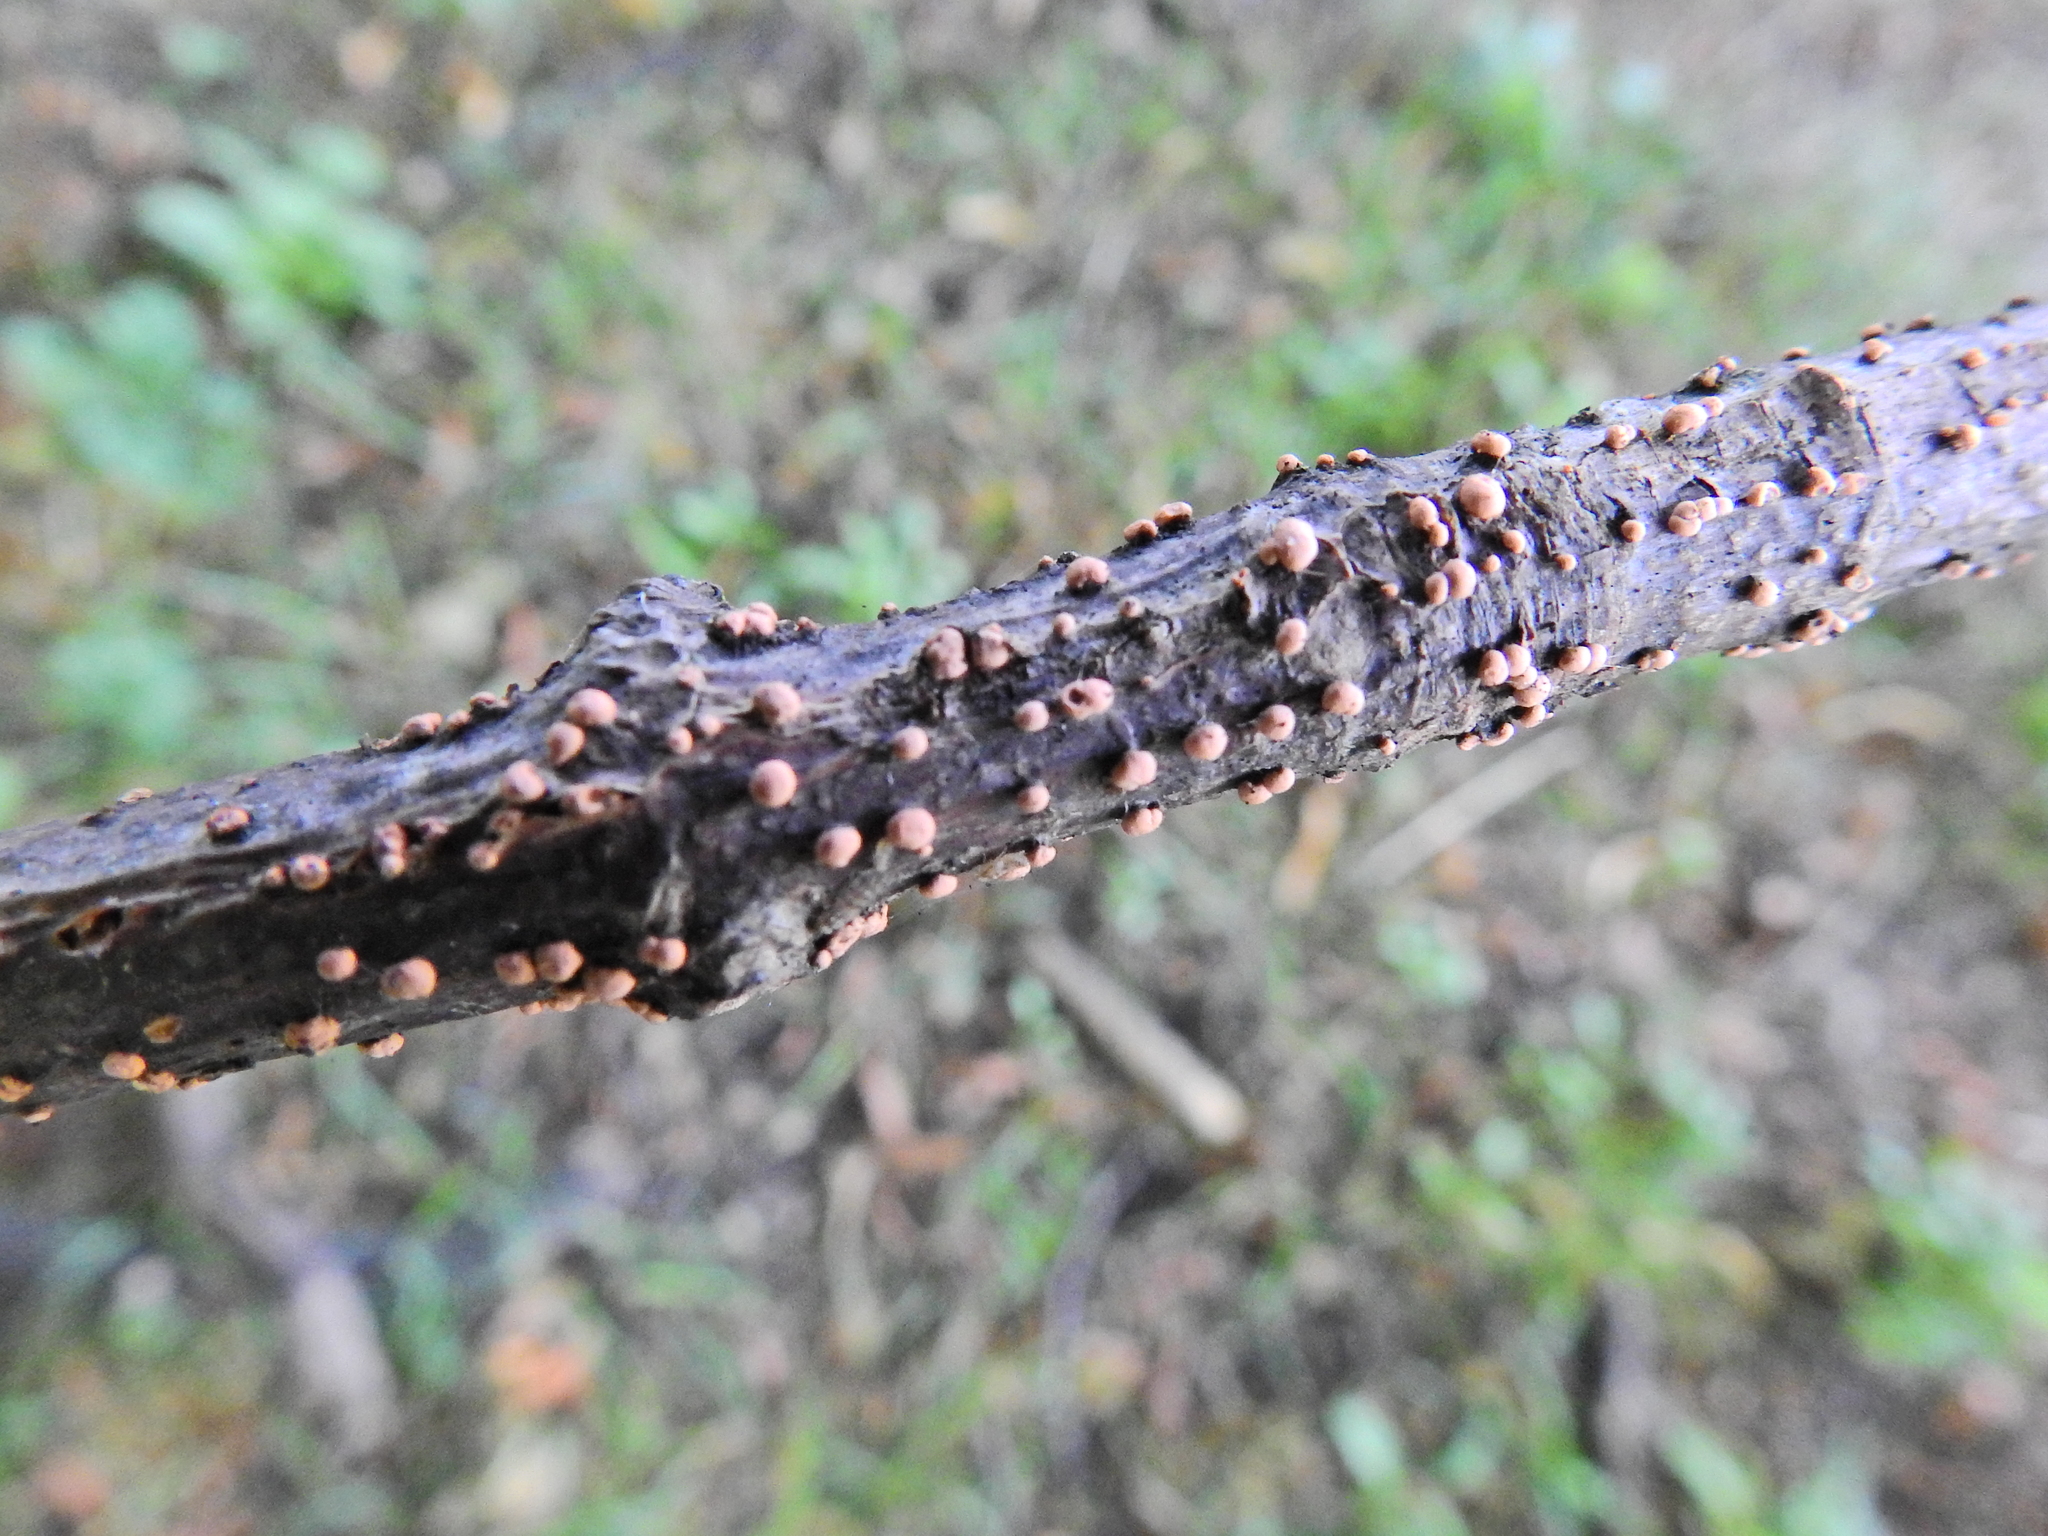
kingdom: Fungi
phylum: Ascomycota
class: Sordariomycetes
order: Hypocreales
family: Nectriaceae
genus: Nectria
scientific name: Nectria cinnabarina
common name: Coral spot
